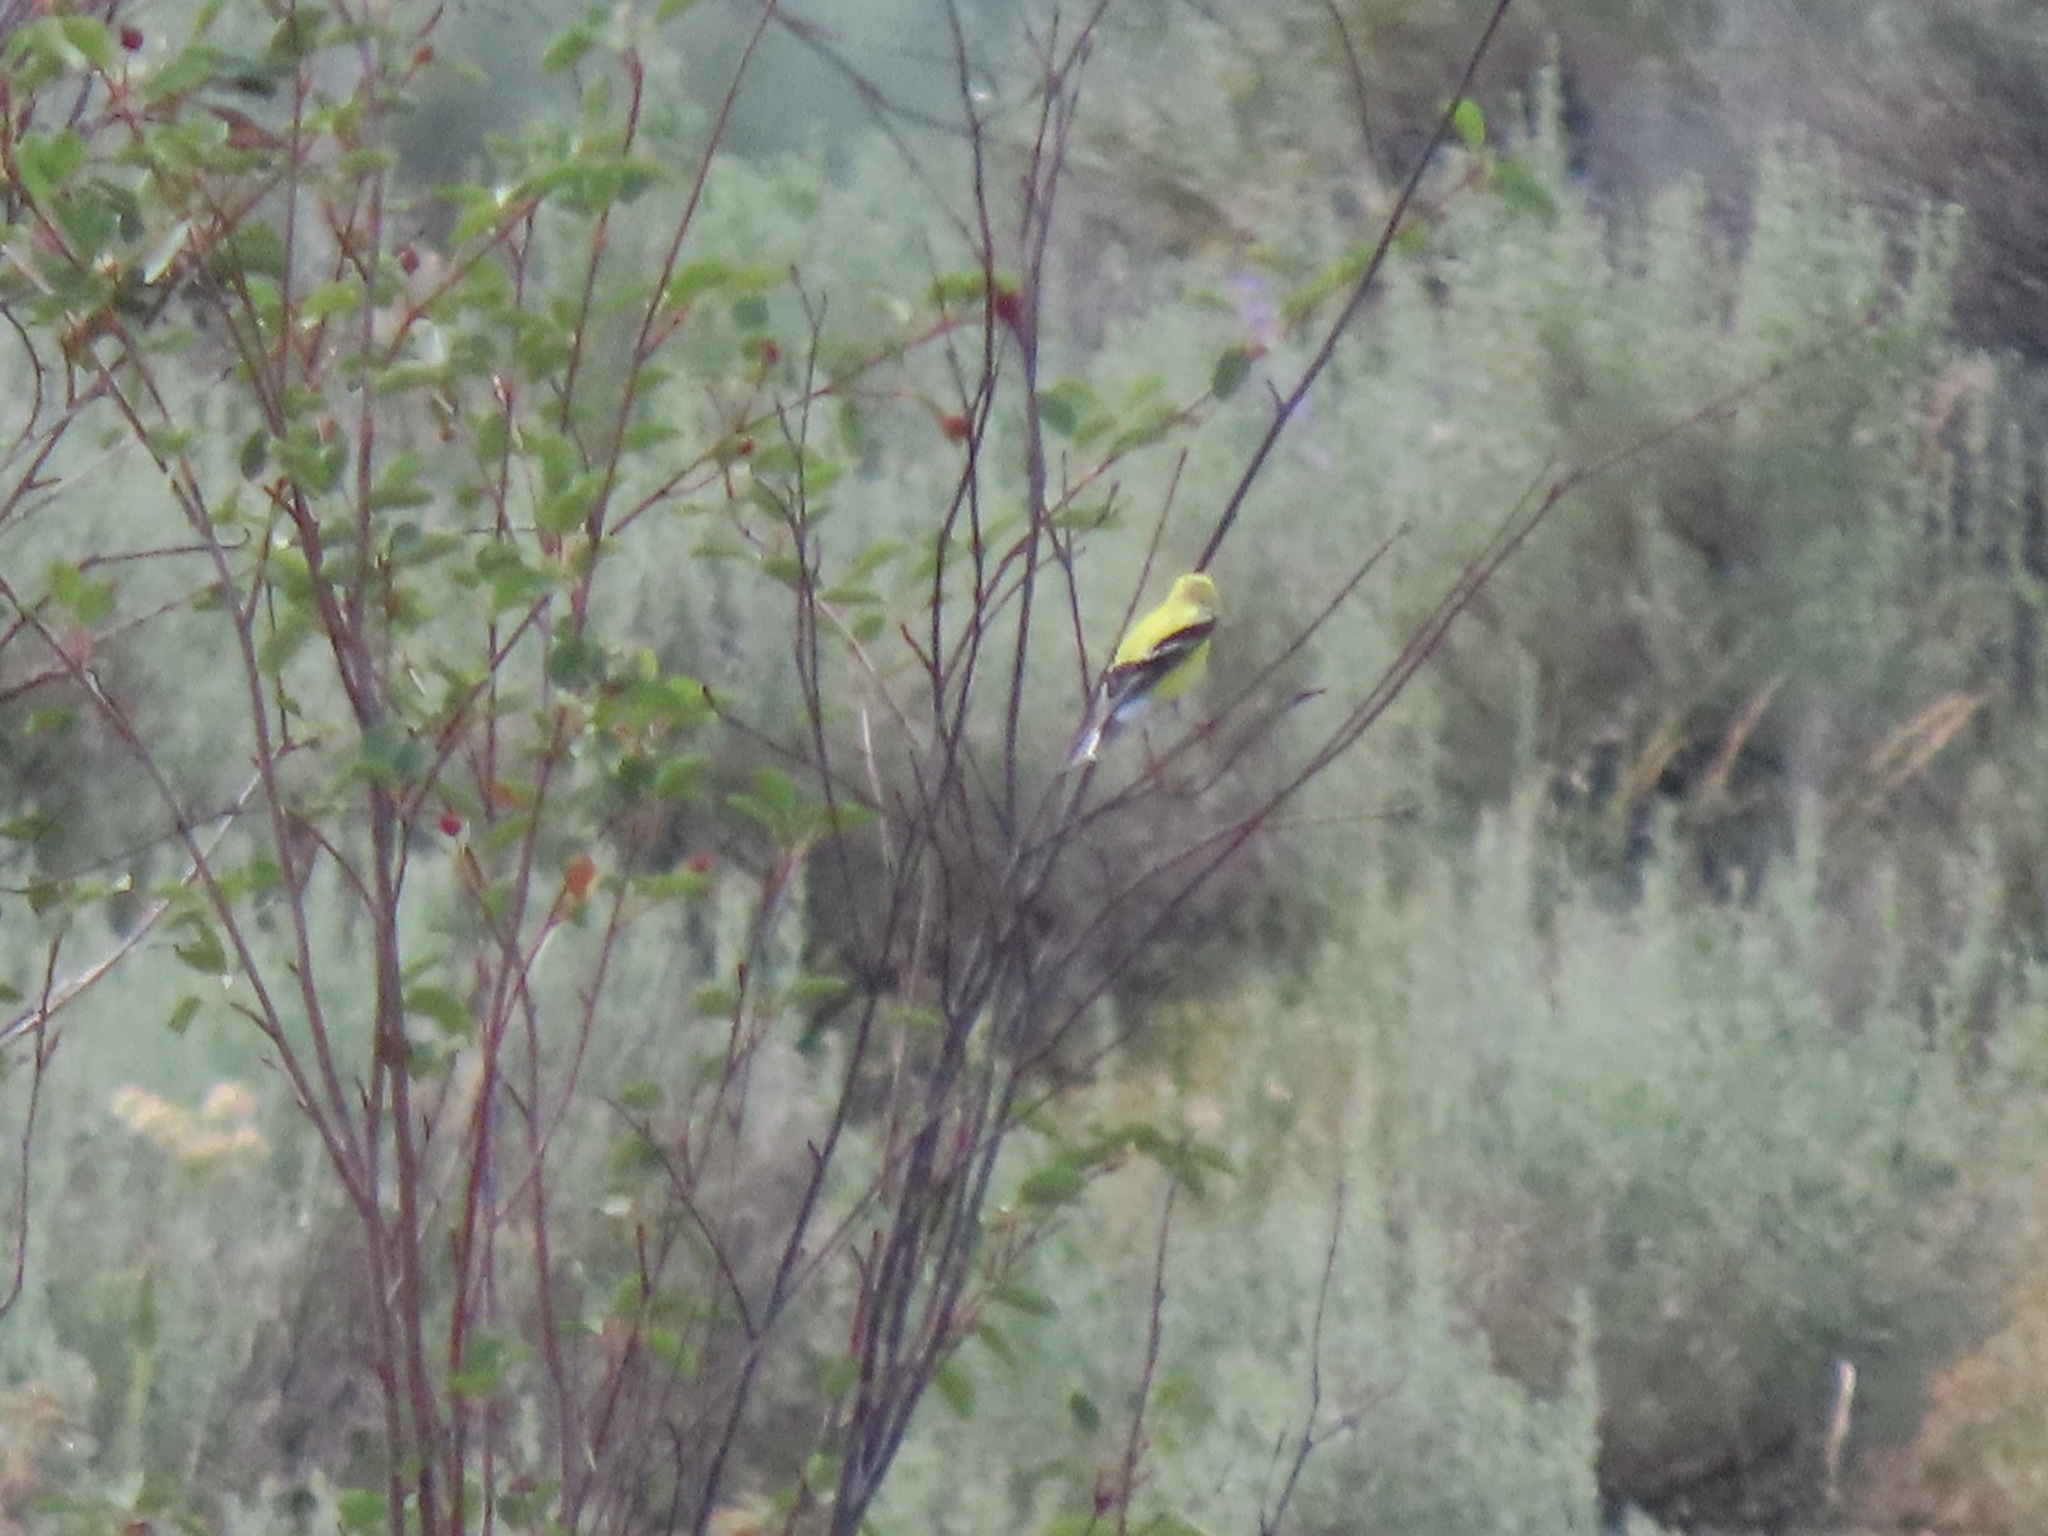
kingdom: Animalia
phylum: Chordata
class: Aves
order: Passeriformes
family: Fringillidae
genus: Spinus
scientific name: Spinus tristis
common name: American goldfinch
